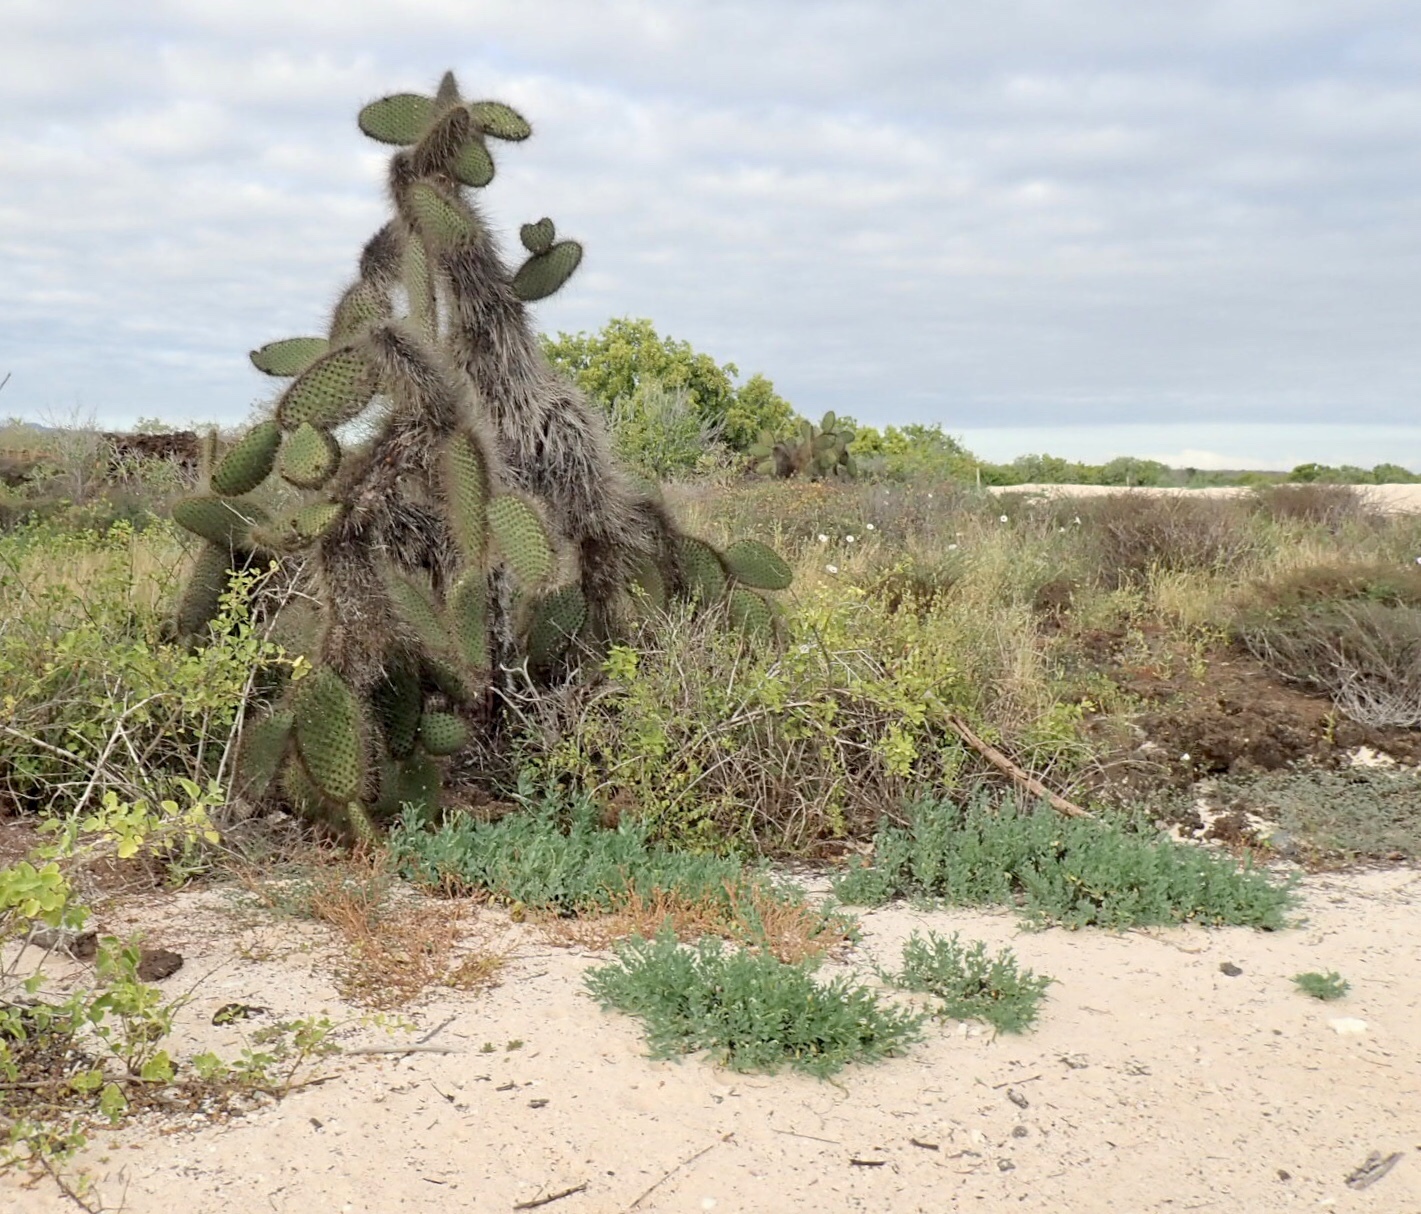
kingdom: Plantae
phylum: Tracheophyta
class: Magnoliopsida
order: Caryophyllales
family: Cactaceae
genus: Opuntia
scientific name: Opuntia galapageia
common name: Galápagos prickly pear
